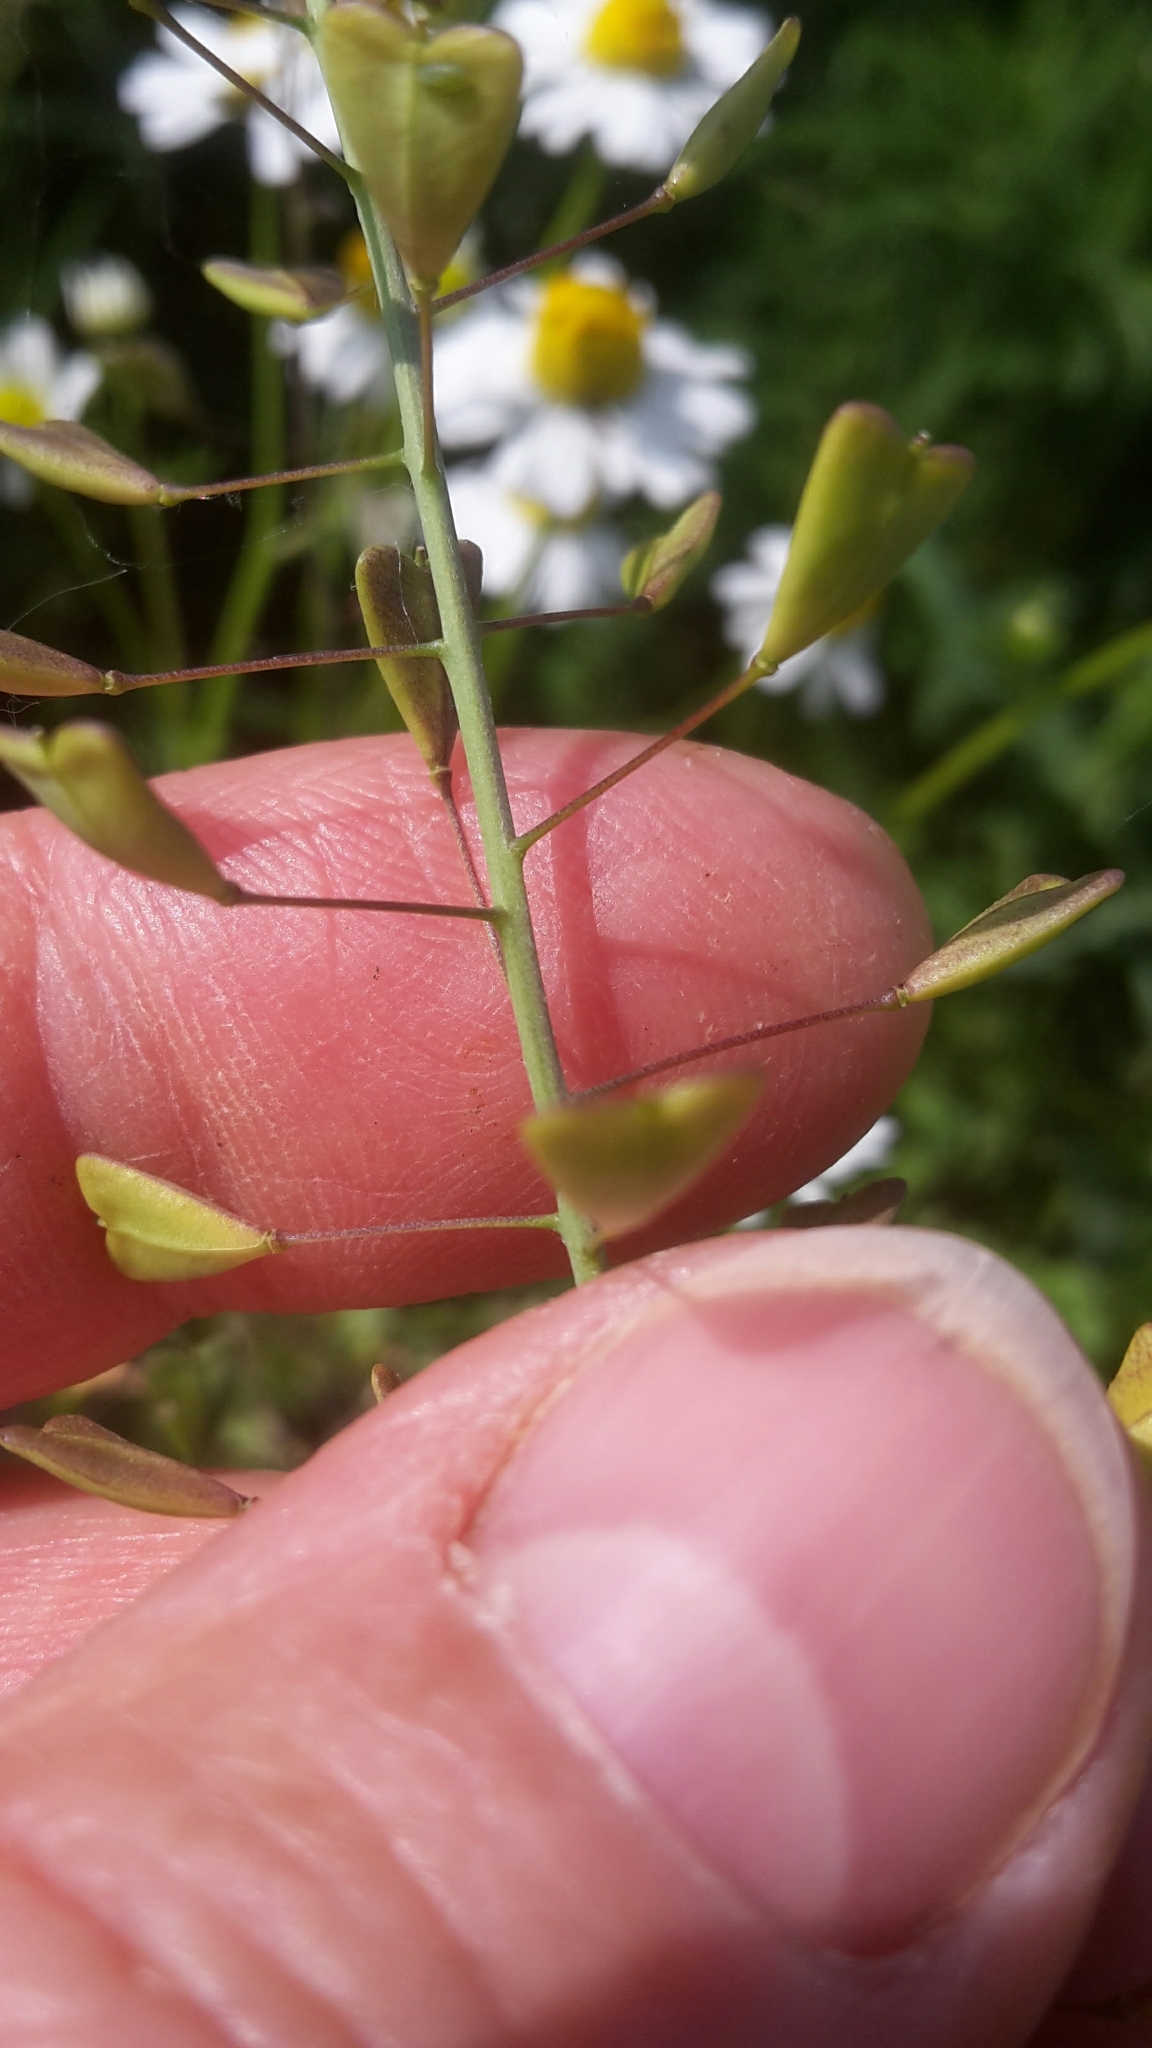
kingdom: Plantae
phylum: Tracheophyta
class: Magnoliopsida
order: Brassicales
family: Brassicaceae
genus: Capsella
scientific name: Capsella bursa-pastoris
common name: Shepherd's purse
